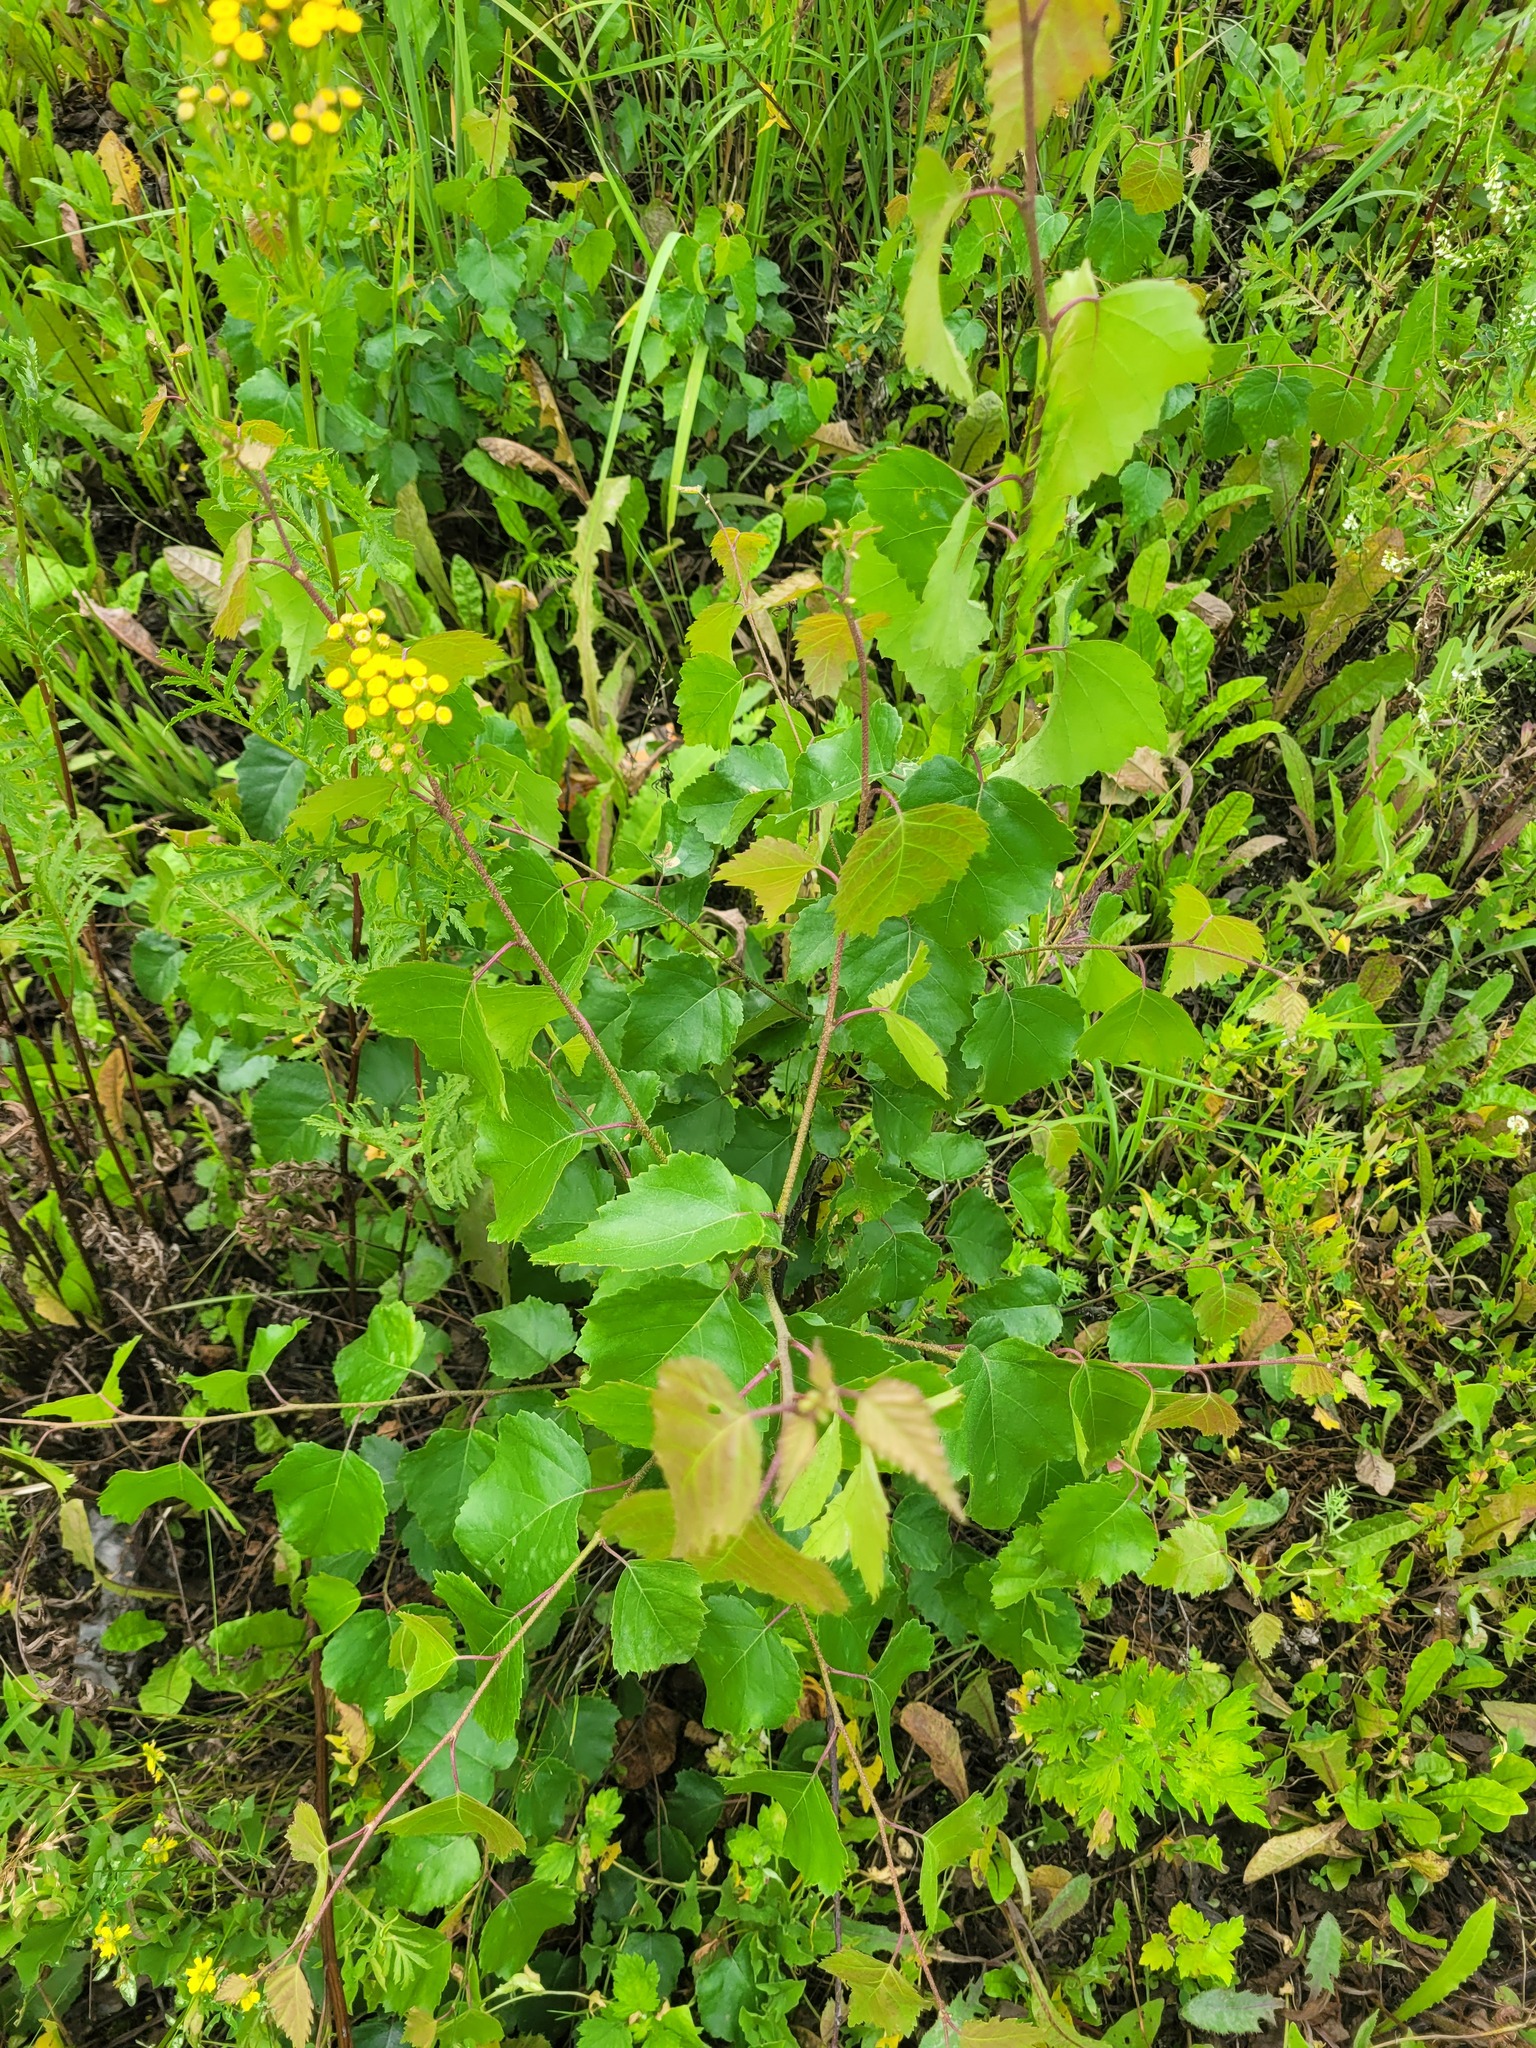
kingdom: Plantae
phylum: Tracheophyta
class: Magnoliopsida
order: Fagales
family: Betulaceae
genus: Betula
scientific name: Betula pendula
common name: Silver birch
